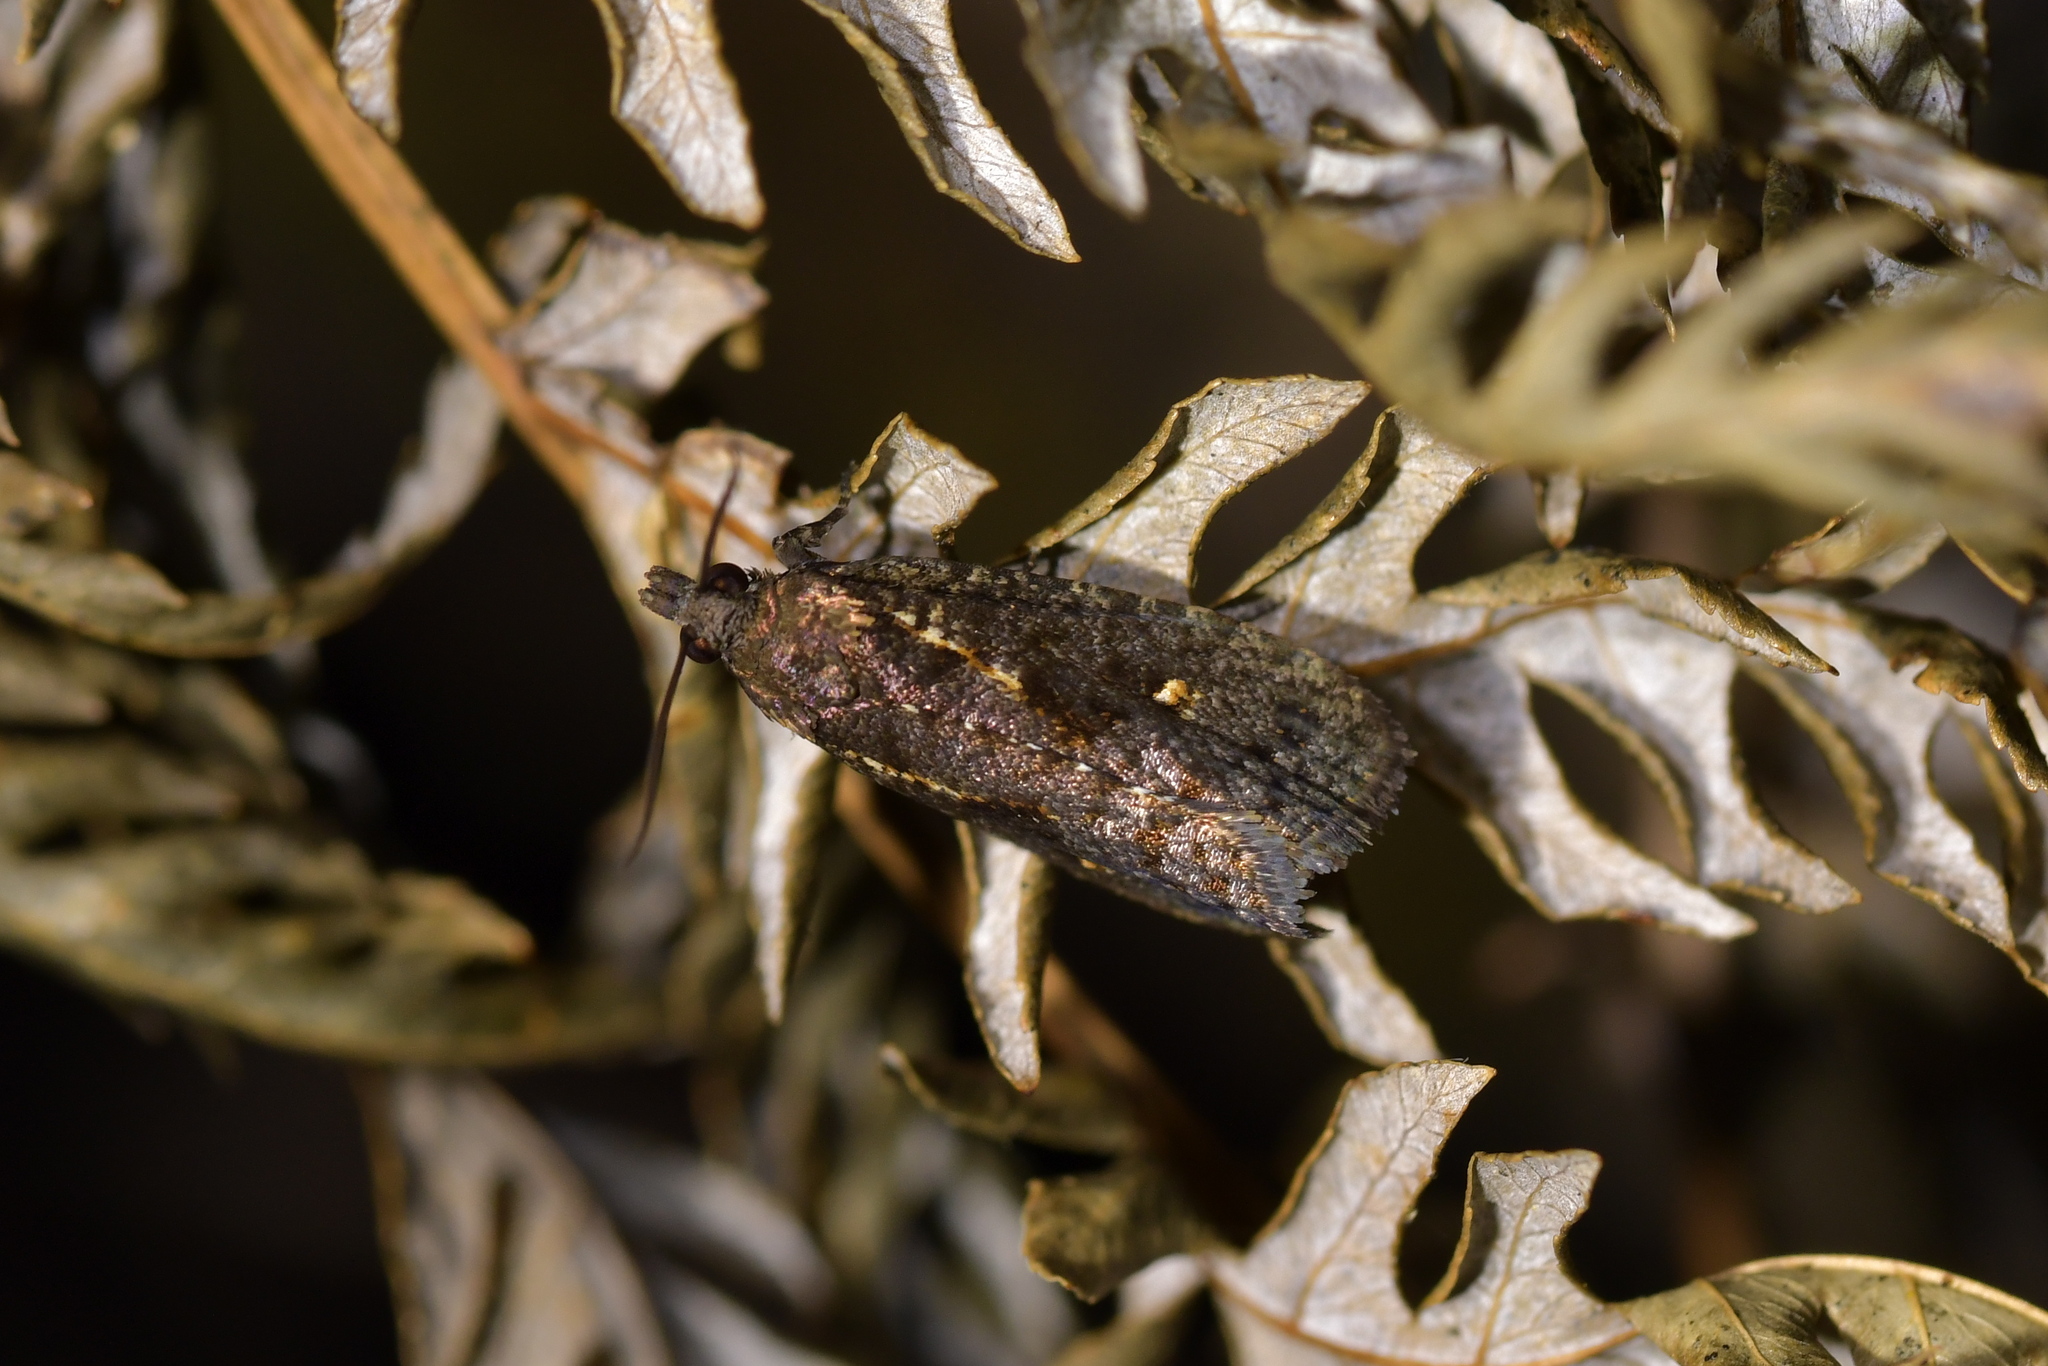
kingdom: Animalia
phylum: Arthropoda
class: Insecta
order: Lepidoptera
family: Tortricidae
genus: Cryptaspasma
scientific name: Cryptaspasma querula
